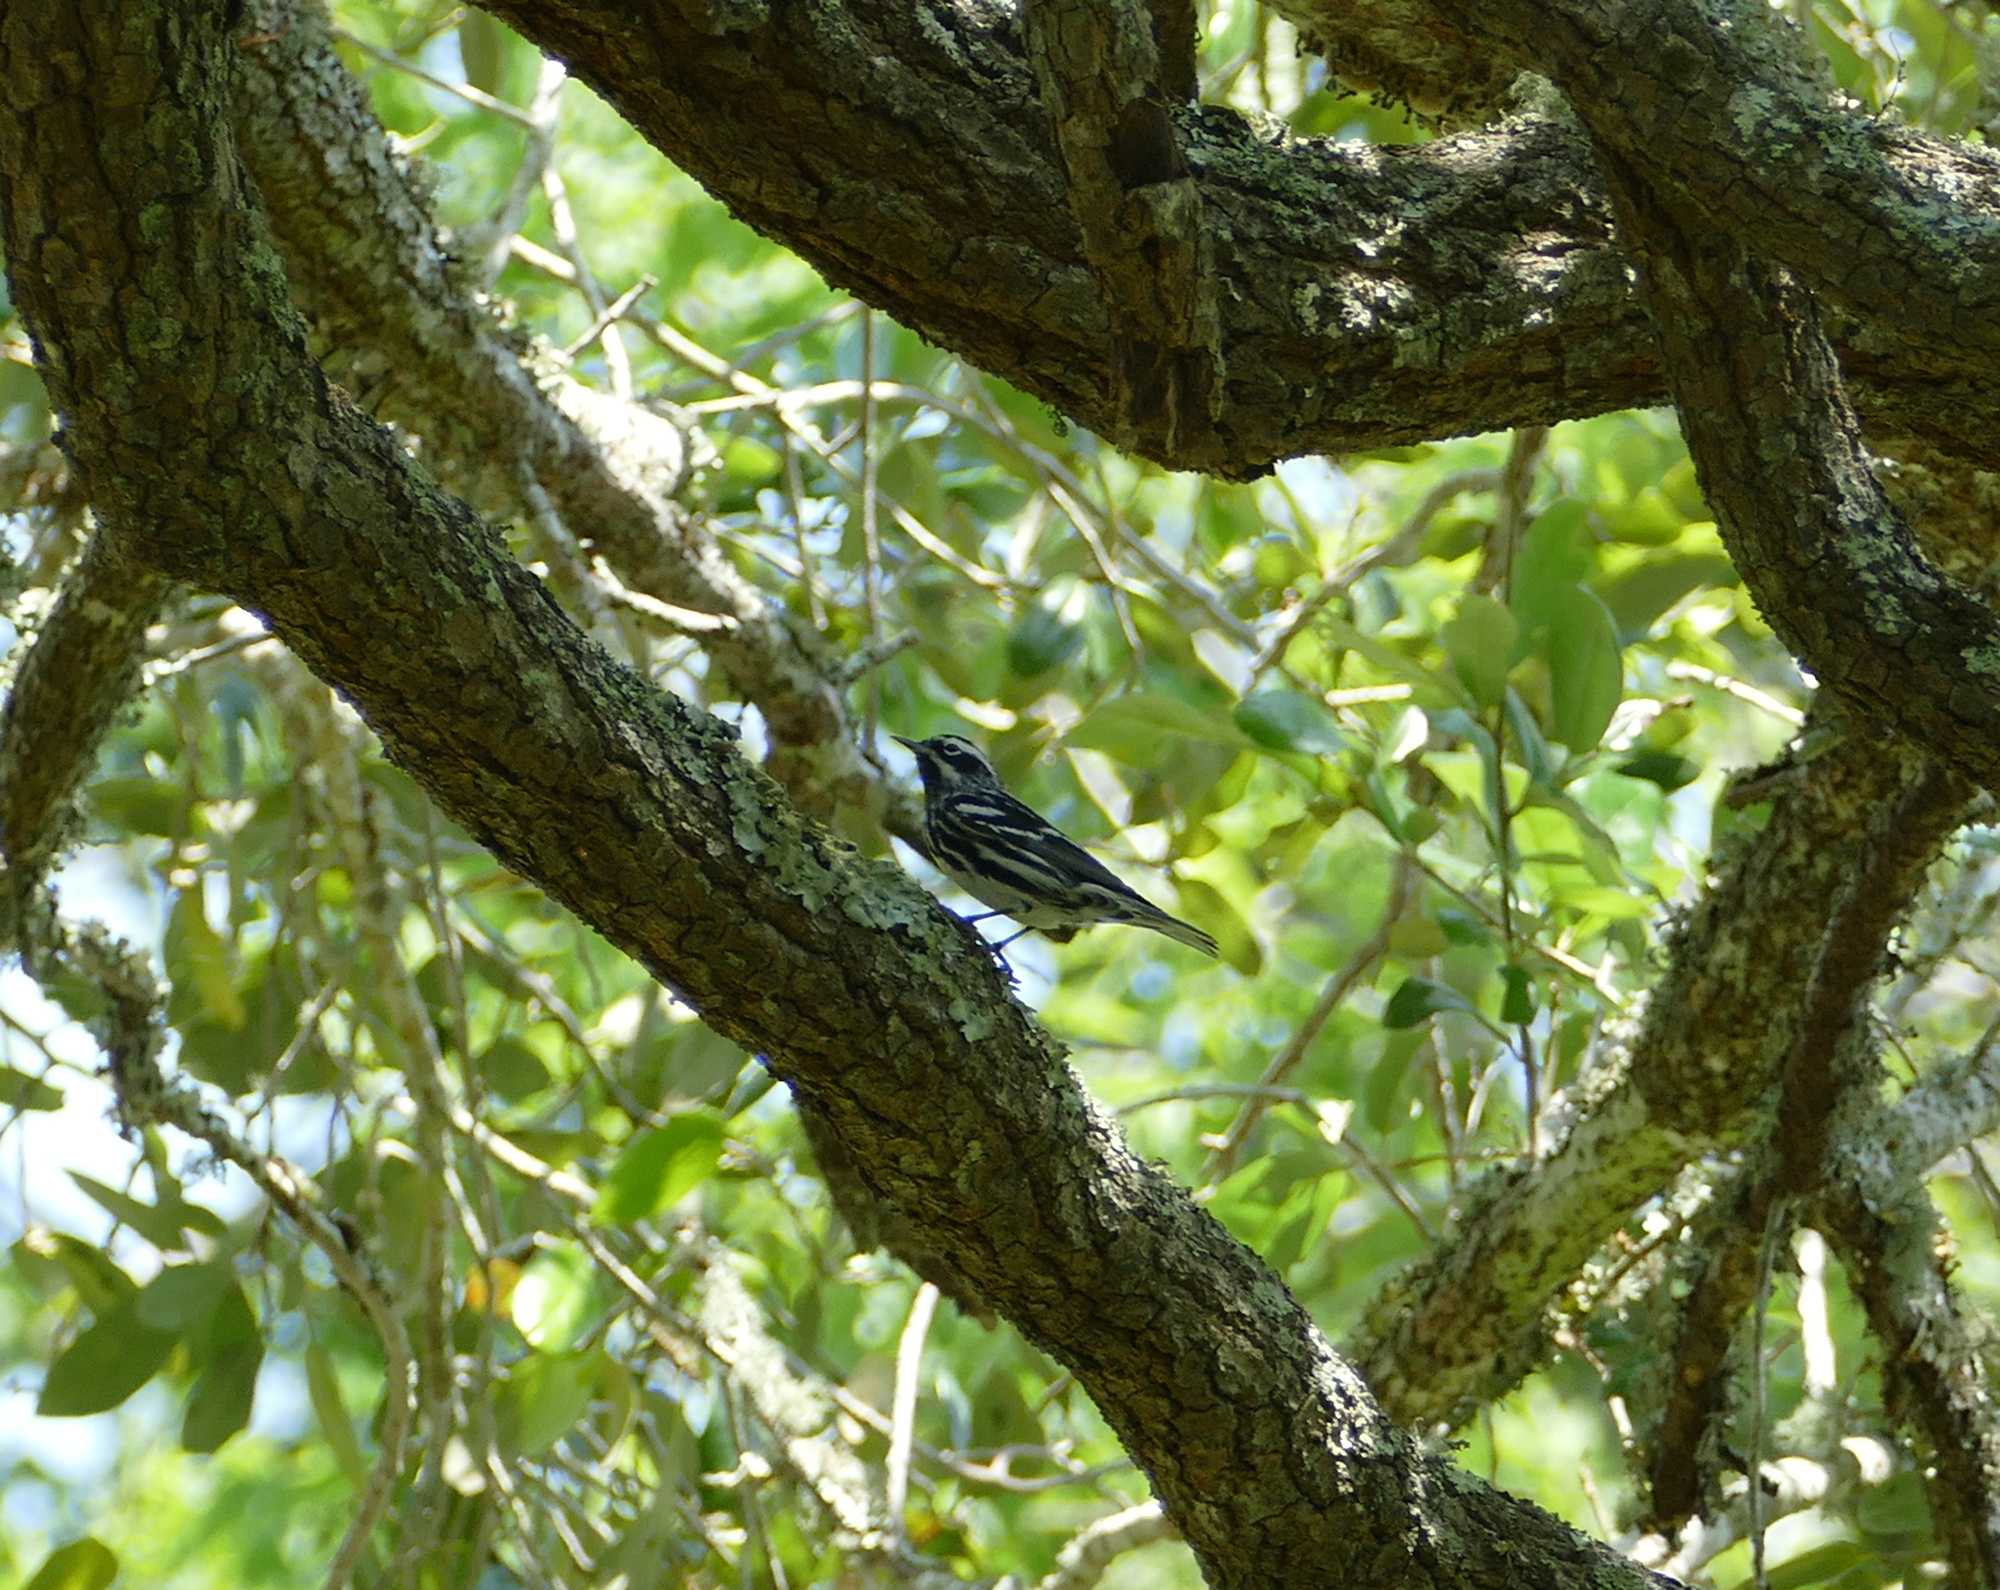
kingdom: Animalia
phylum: Chordata
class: Aves
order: Passeriformes
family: Parulidae
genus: Mniotilta
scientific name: Mniotilta varia
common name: Black-and-white warbler
